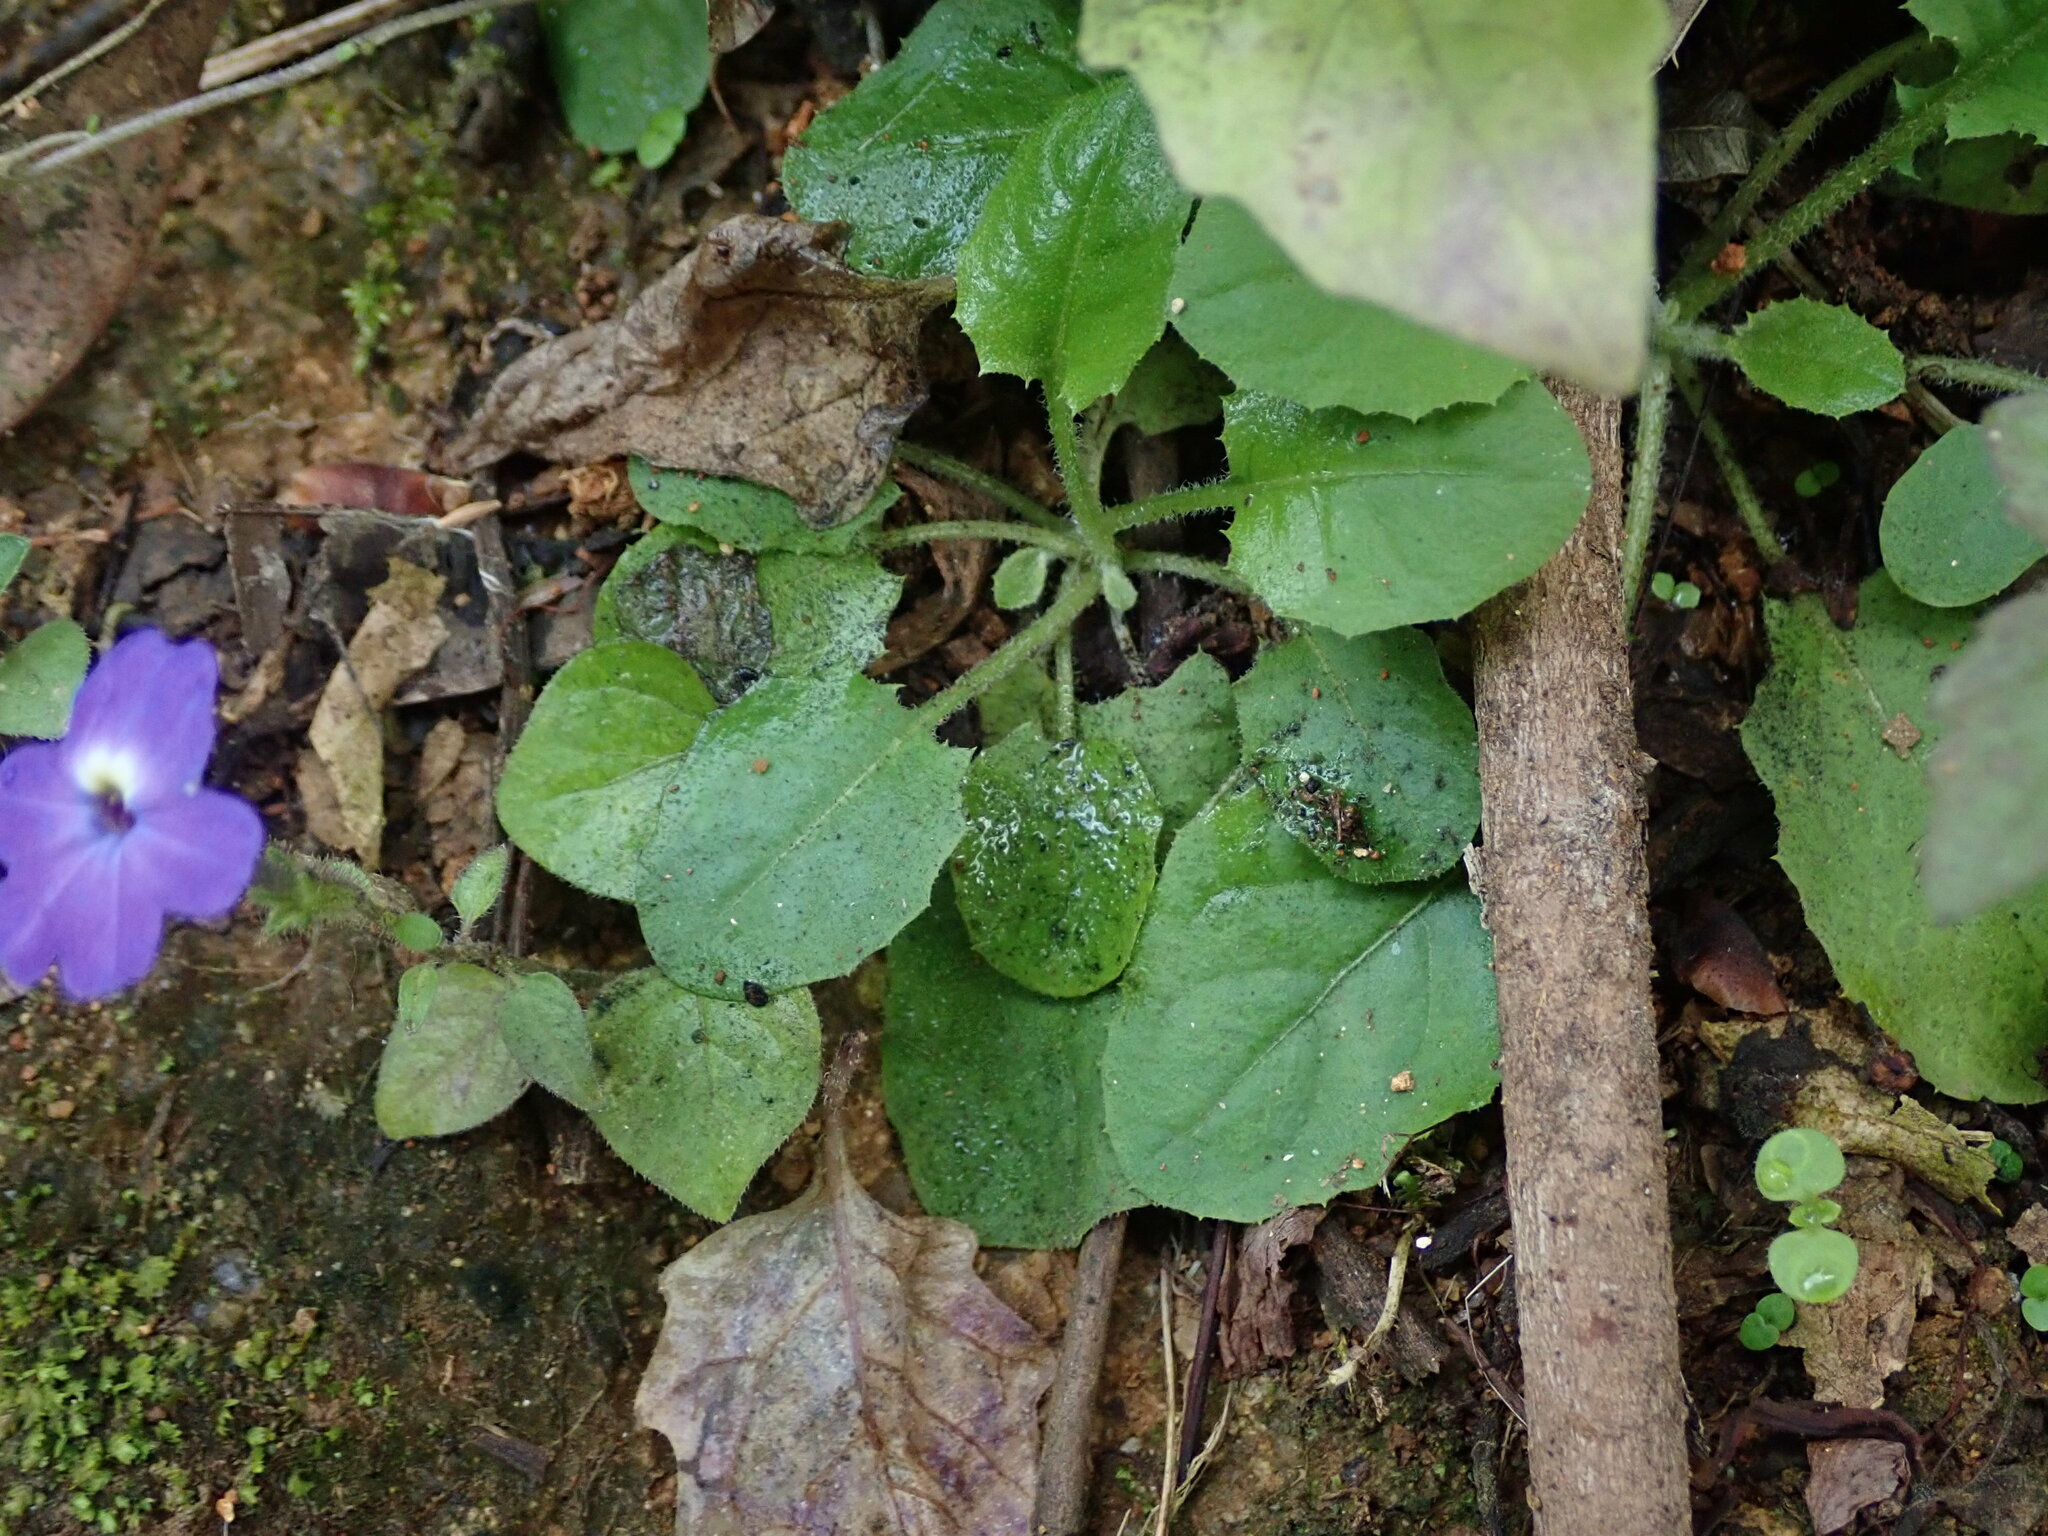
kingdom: Plantae
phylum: Tracheophyta
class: Magnoliopsida
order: Solanales
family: Solanaceae
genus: Browallia
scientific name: Browallia americana
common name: Jamaican forget-me-not
